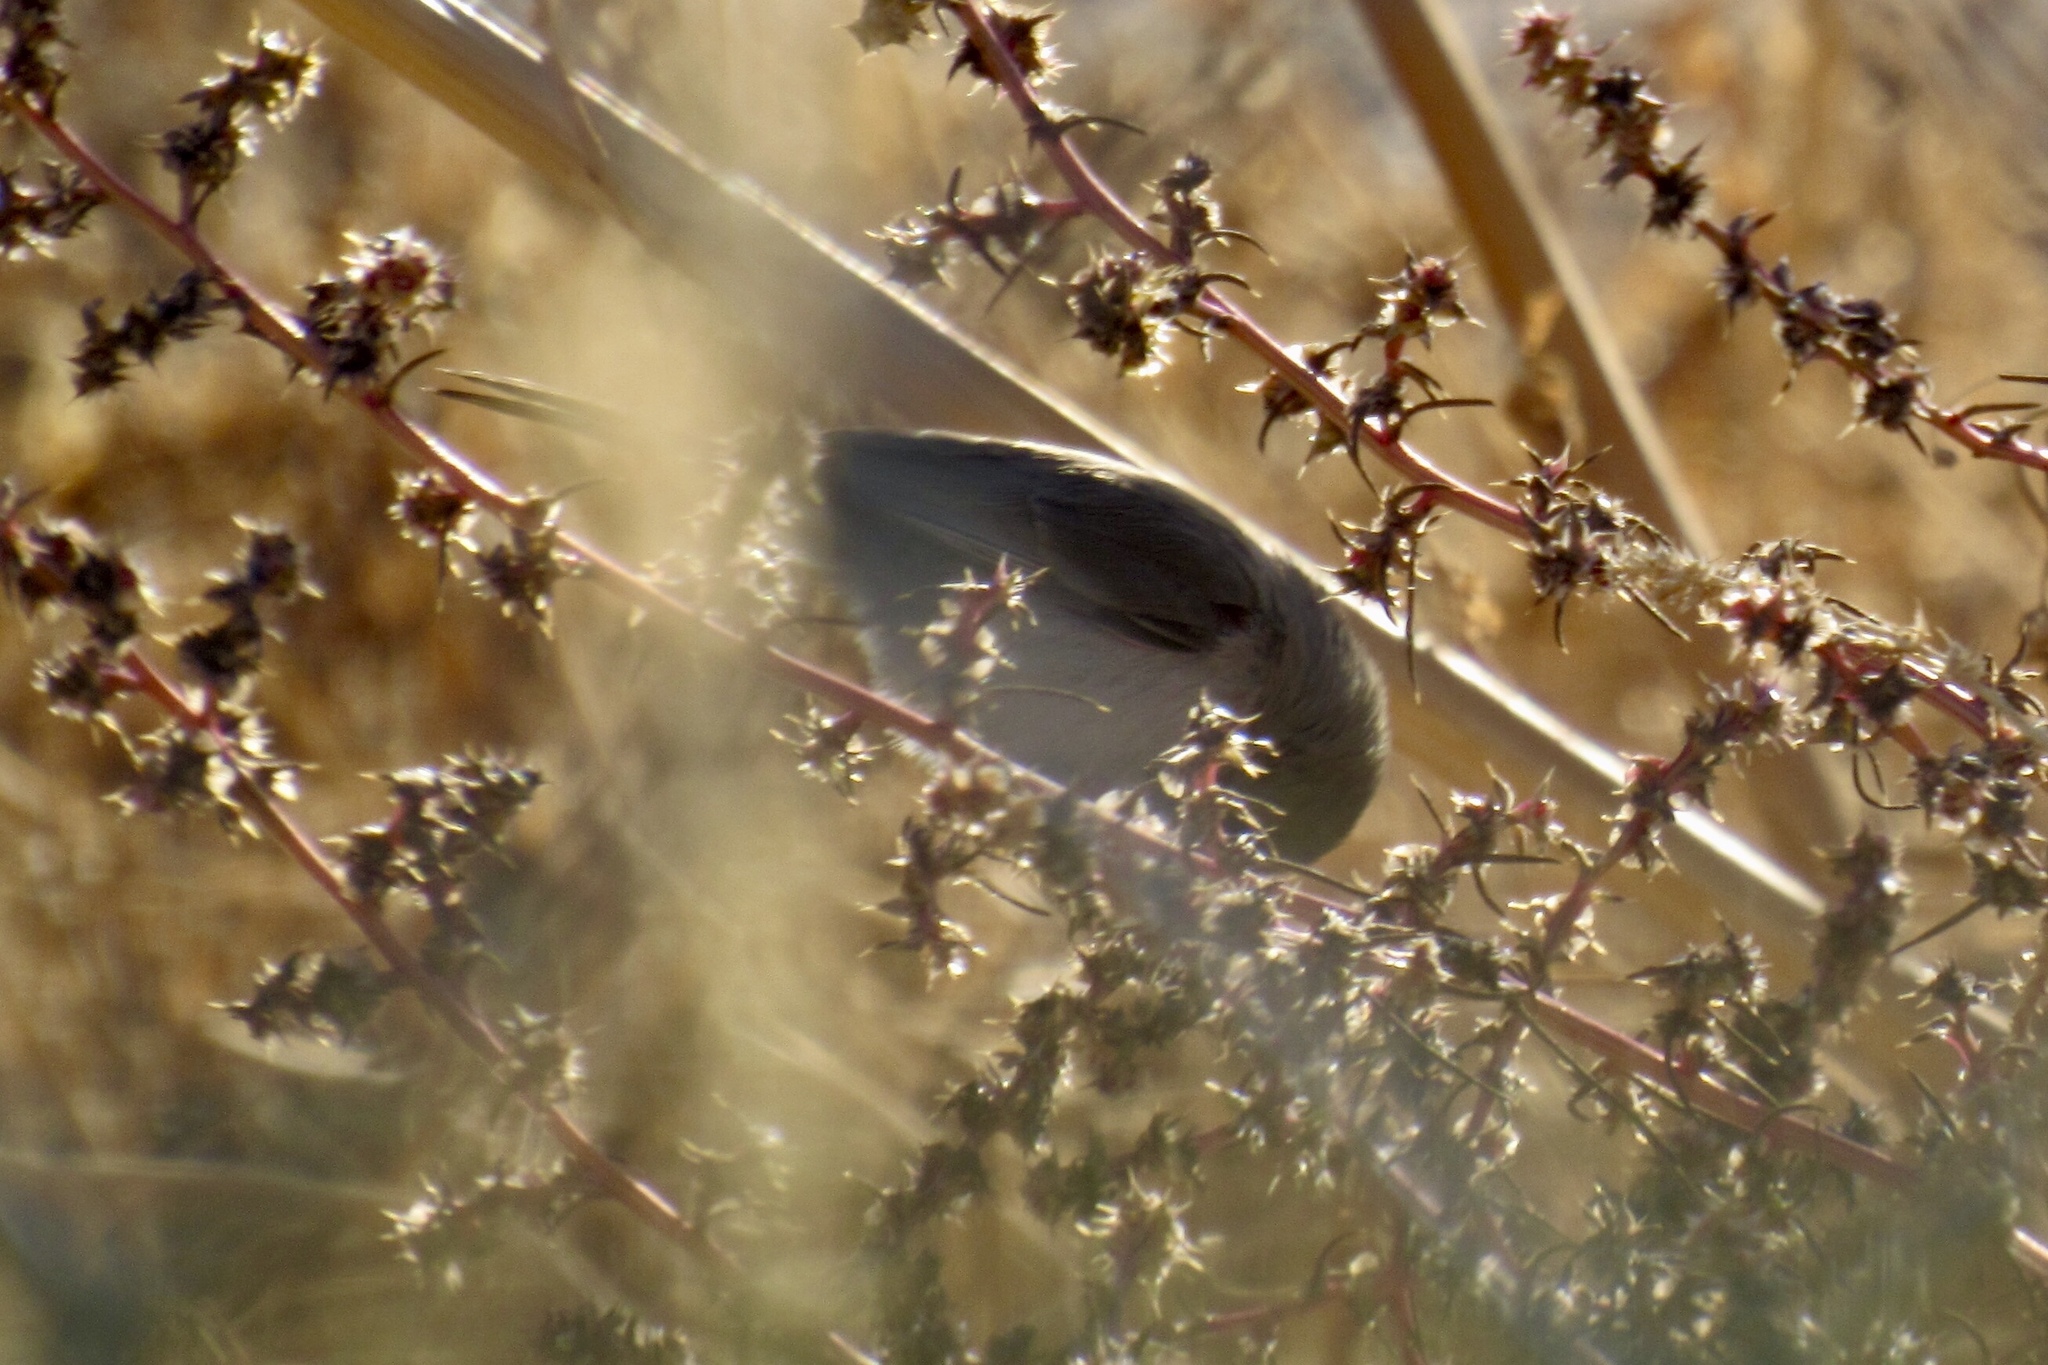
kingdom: Animalia
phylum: Chordata
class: Aves
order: Passeriformes
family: Remizidae
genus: Auriparus
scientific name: Auriparus flaviceps
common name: Verdin
